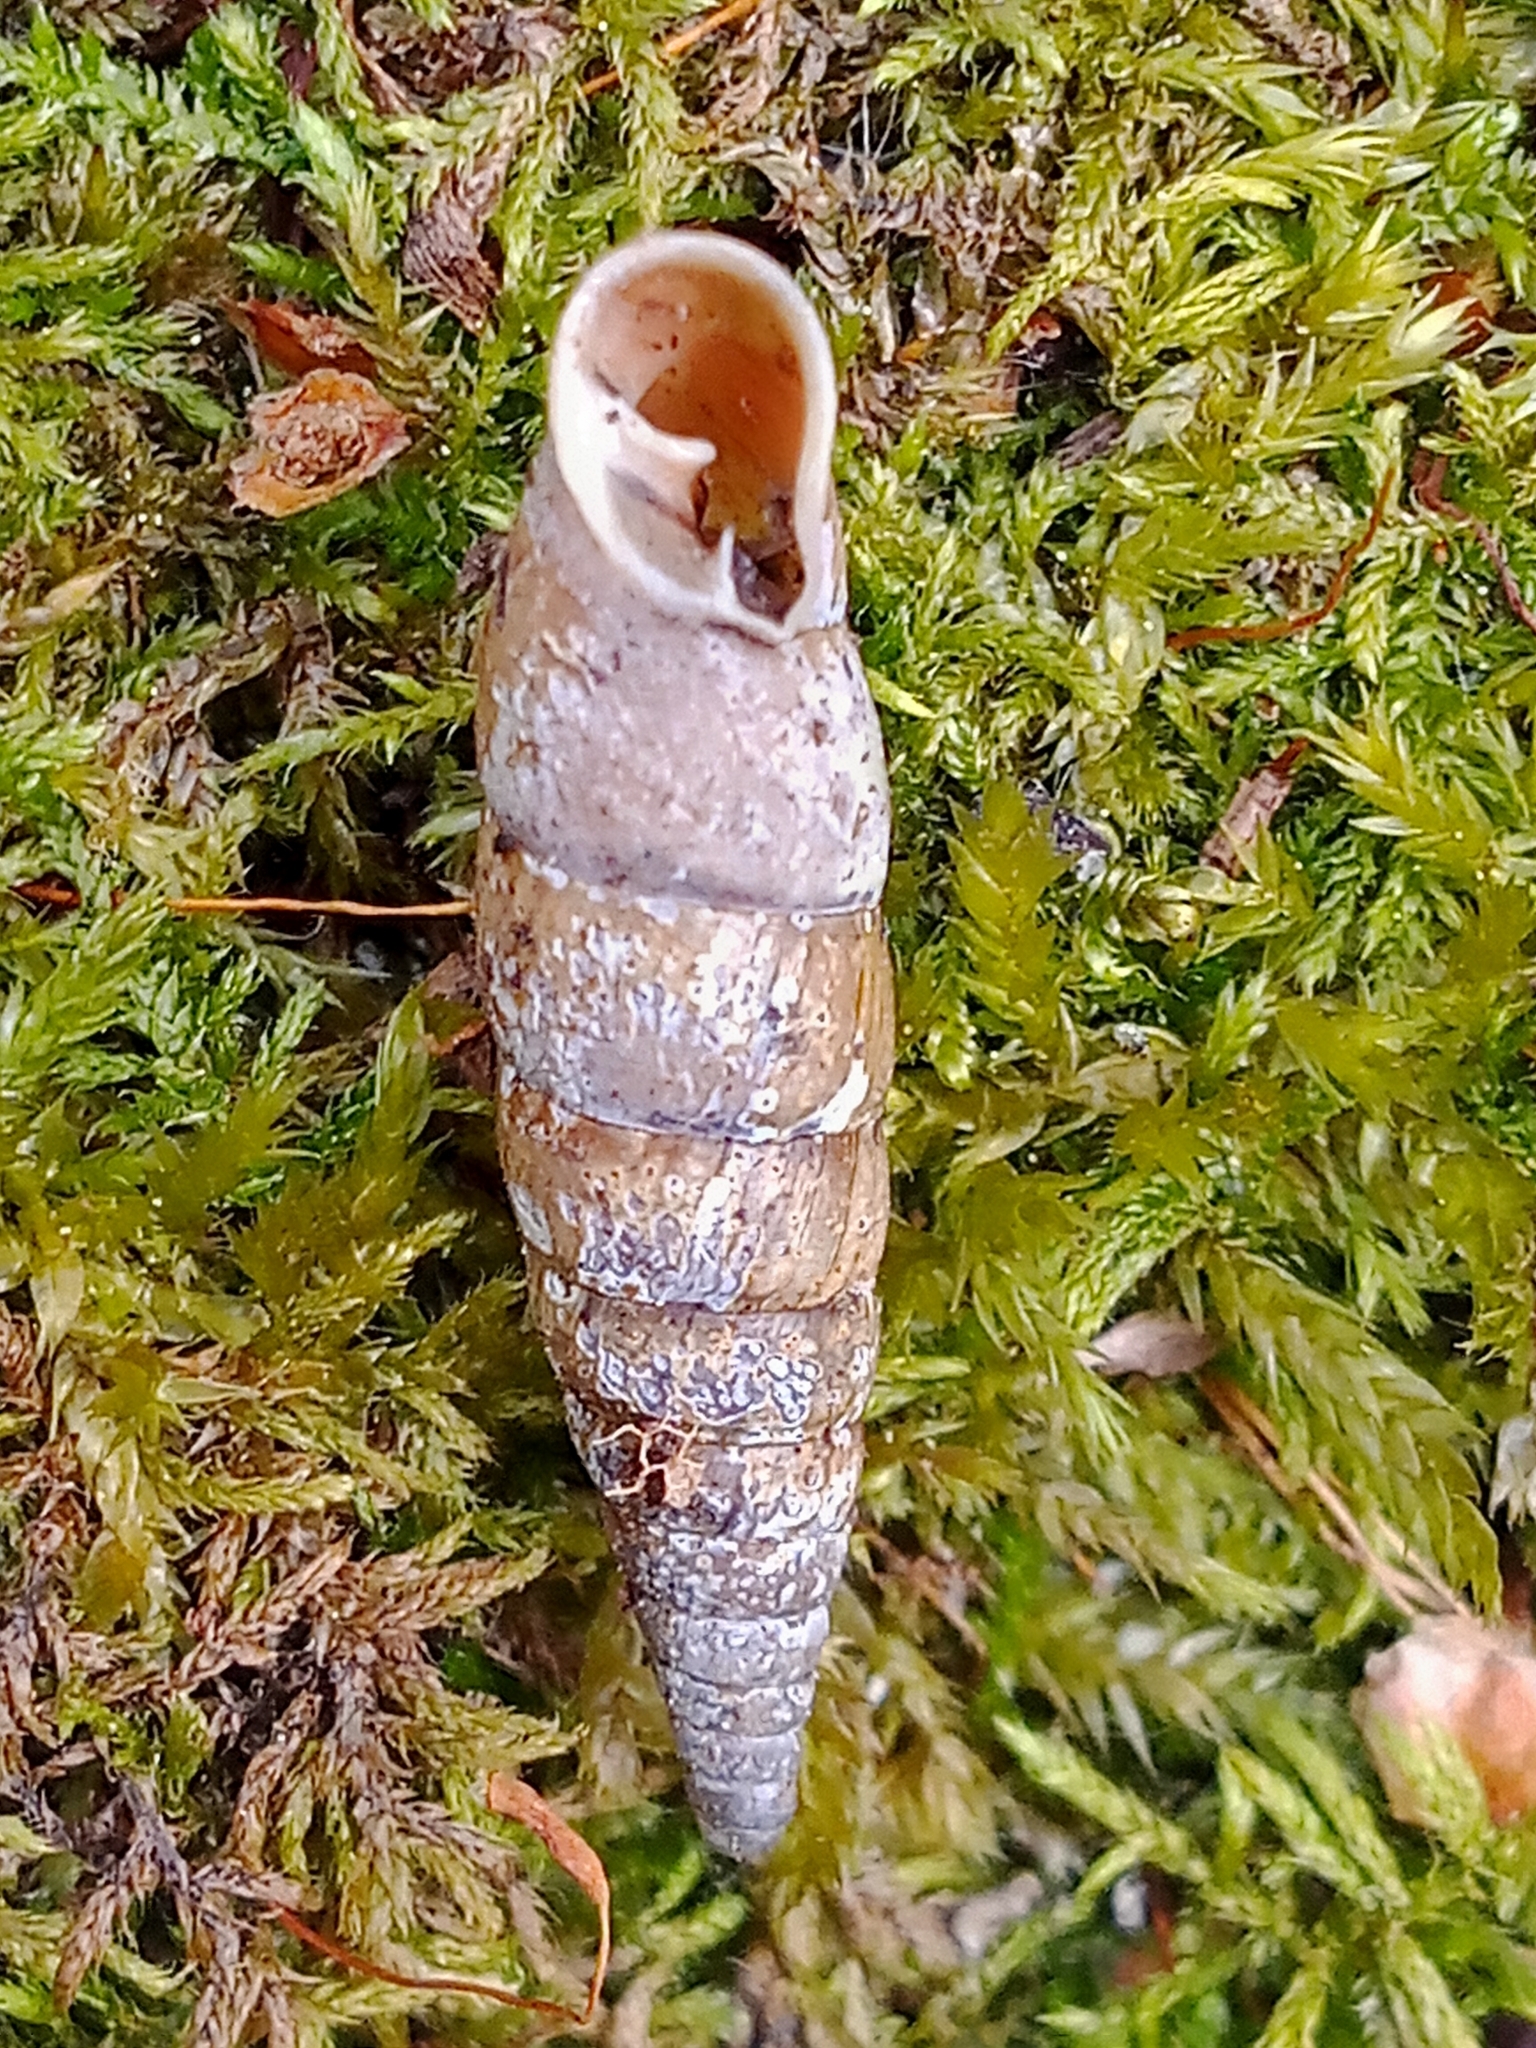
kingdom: Animalia
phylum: Mollusca
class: Gastropoda
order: Stylommatophora
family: Clausiliidae
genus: Cochlodina
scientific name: Cochlodina laminata
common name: Plaited door snail
